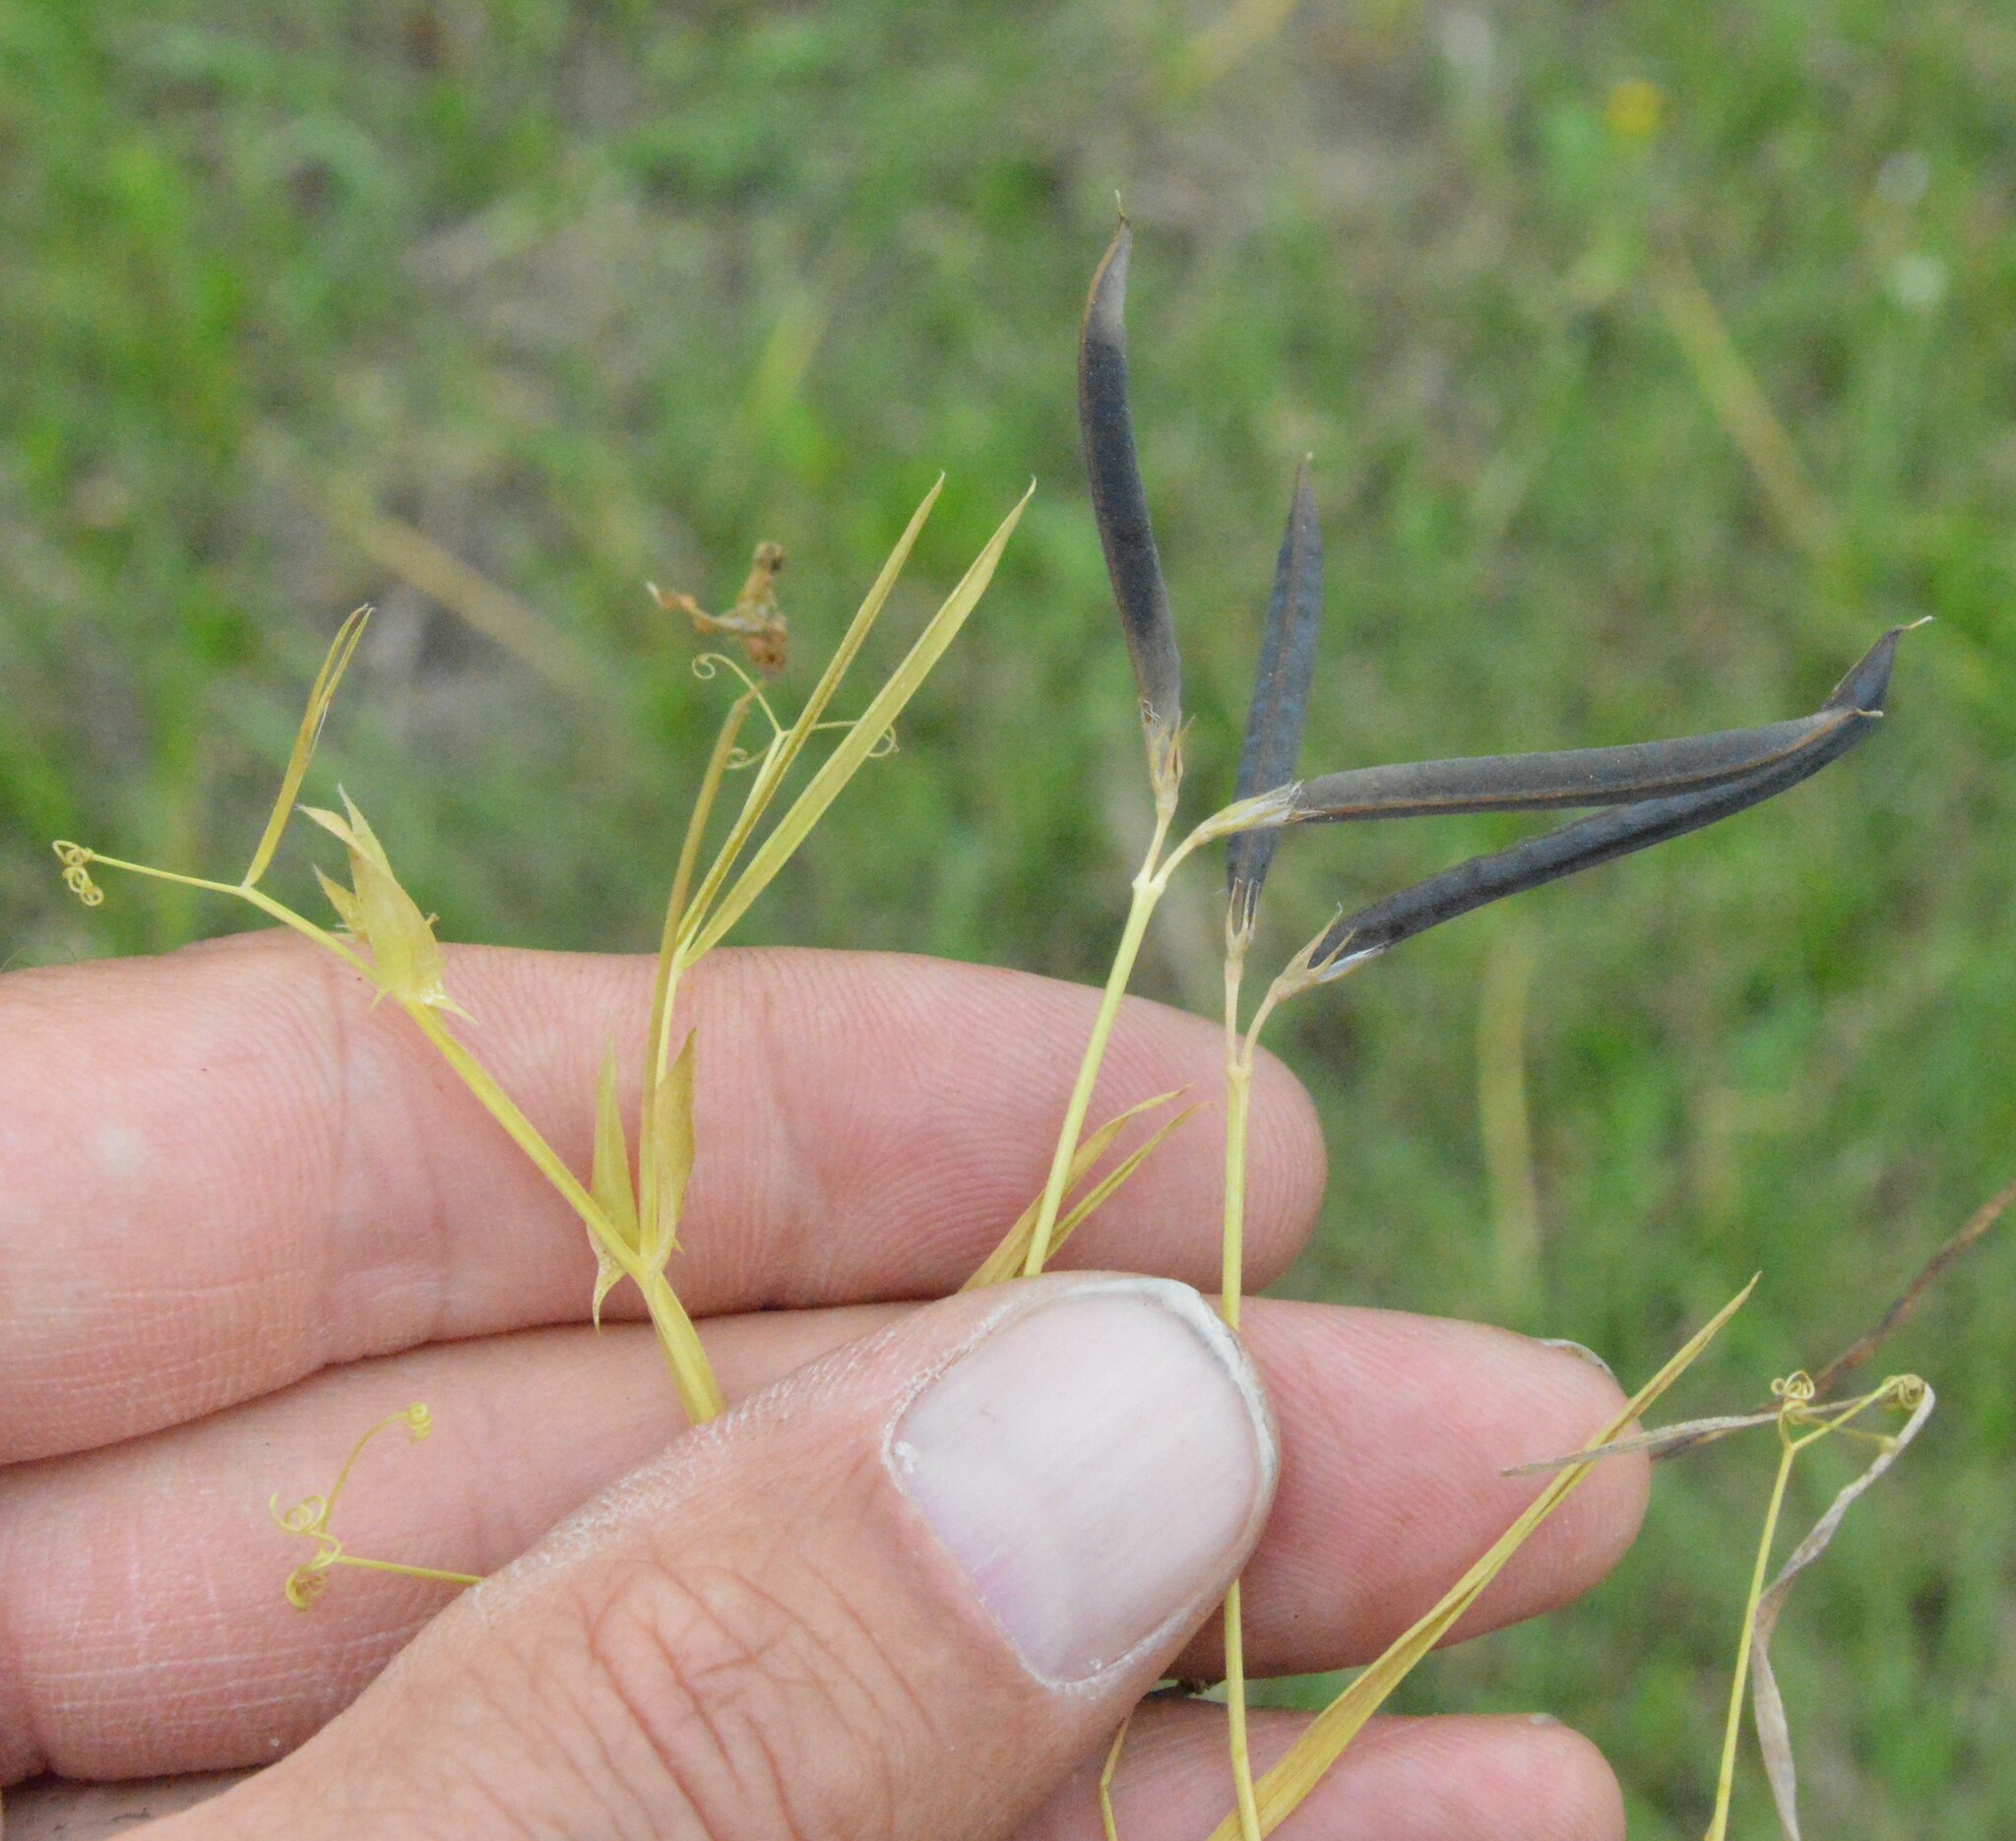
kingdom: Plantae
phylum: Tracheophyta
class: Magnoliopsida
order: Fabales
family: Fabaceae
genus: Lathyrus
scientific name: Lathyrus pusillus
